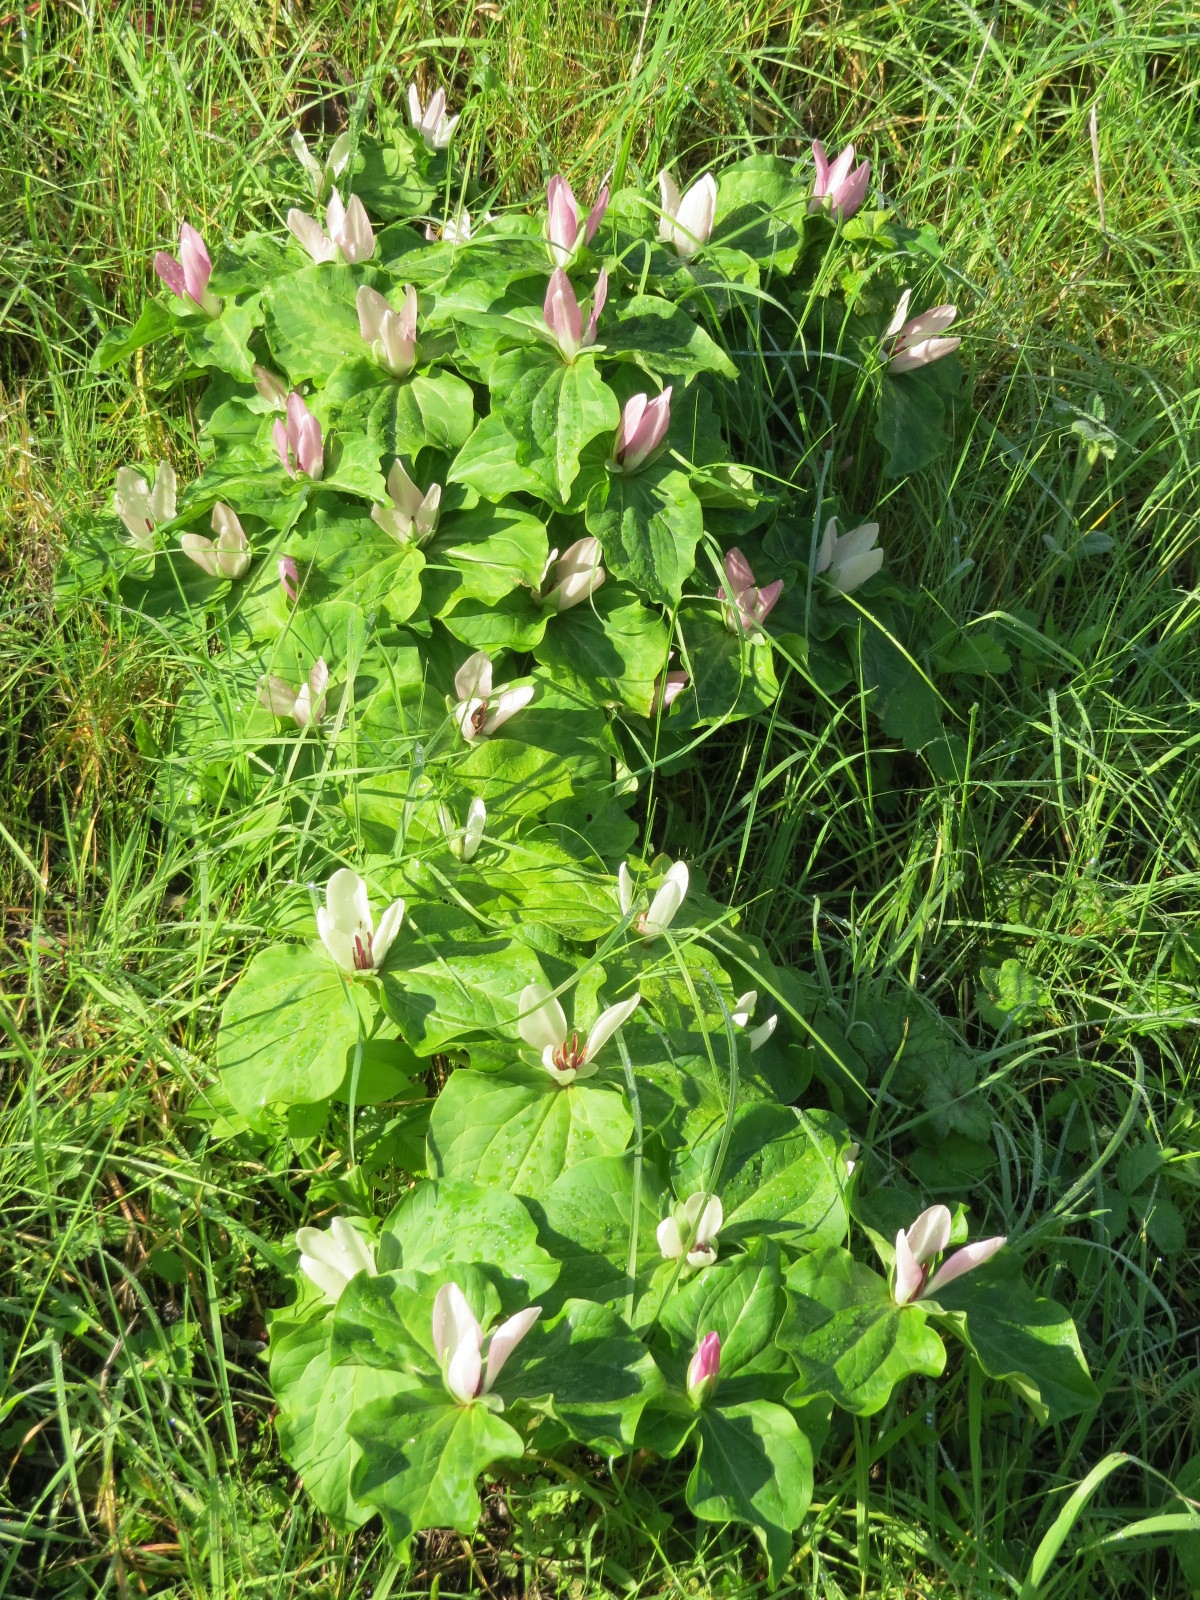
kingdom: Plantae
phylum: Tracheophyta
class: Liliopsida
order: Liliales
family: Melanthiaceae
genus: Trillium
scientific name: Trillium chloropetalum
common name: Giant trillium
